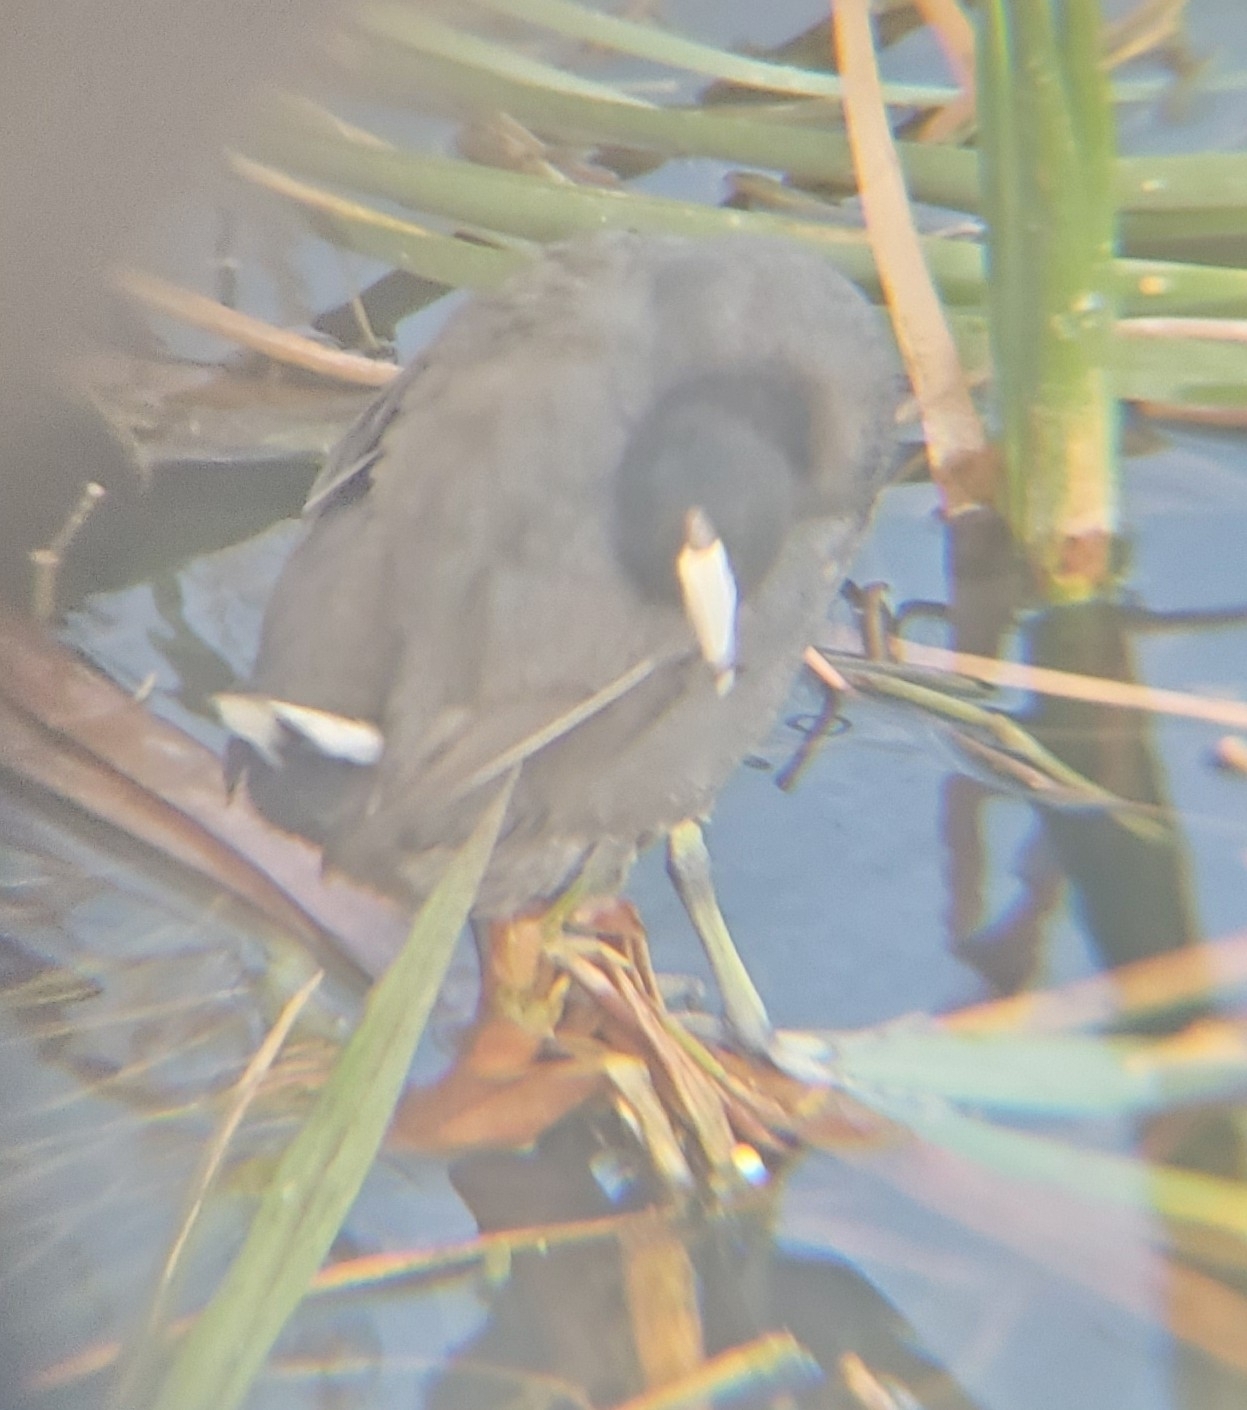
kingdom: Animalia
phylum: Chordata
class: Aves
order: Gruiformes
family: Rallidae
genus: Fulica
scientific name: Fulica americana
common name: American coot
